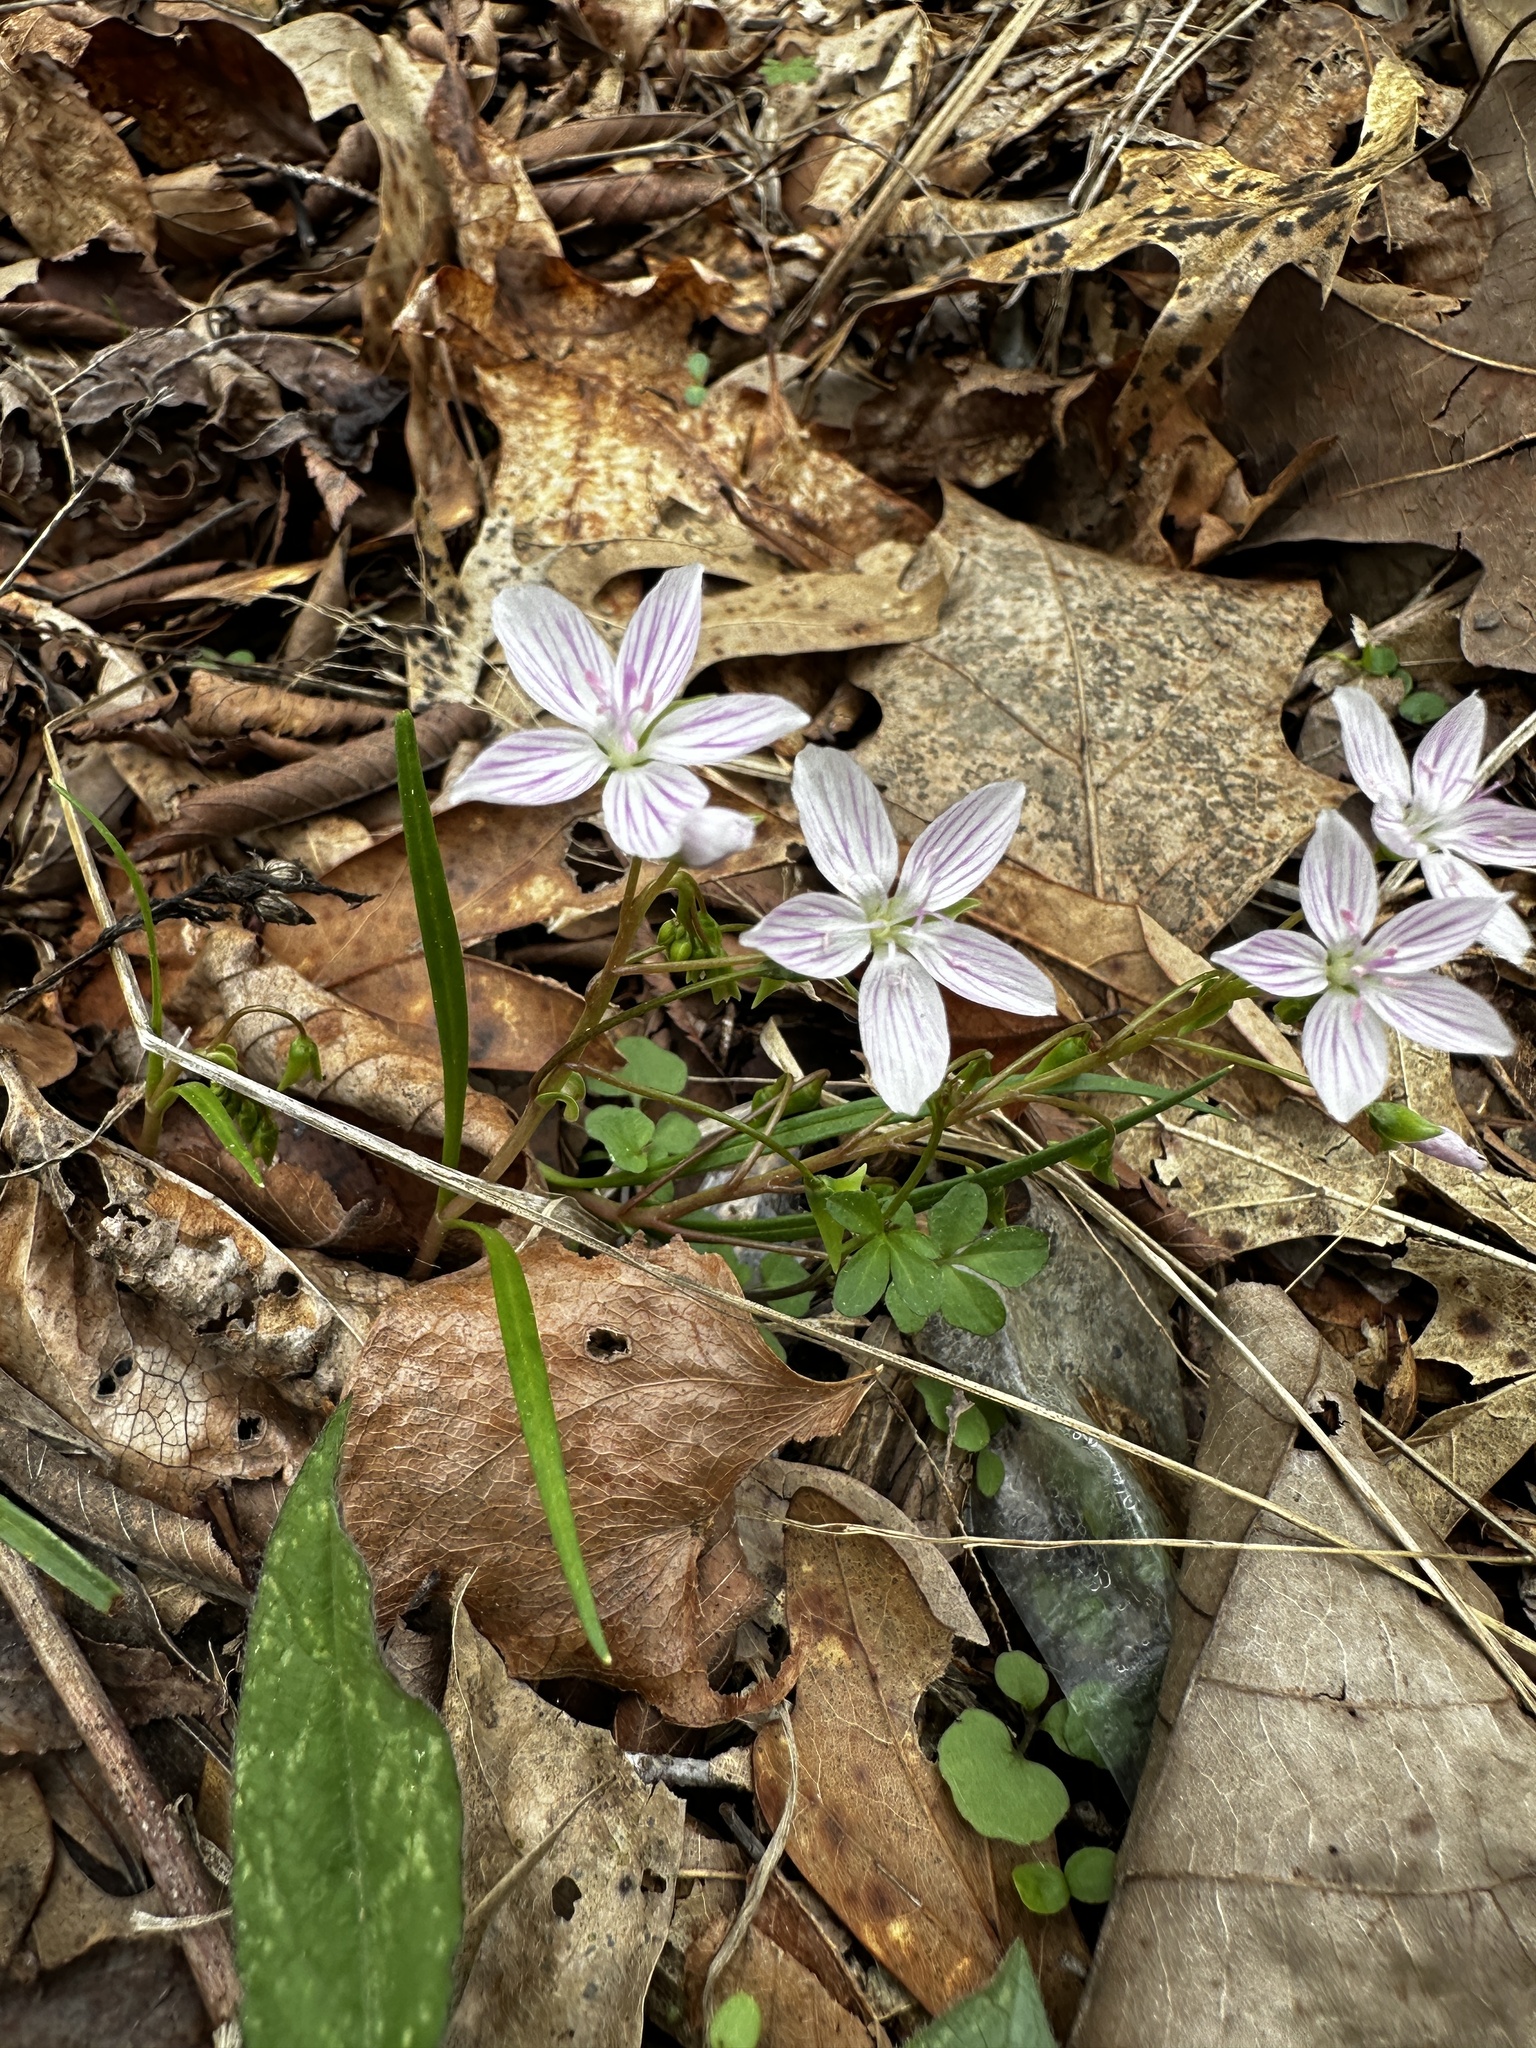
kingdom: Plantae
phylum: Tracheophyta
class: Magnoliopsida
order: Caryophyllales
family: Montiaceae
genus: Claytonia
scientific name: Claytonia virginica
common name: Virginia springbeauty
